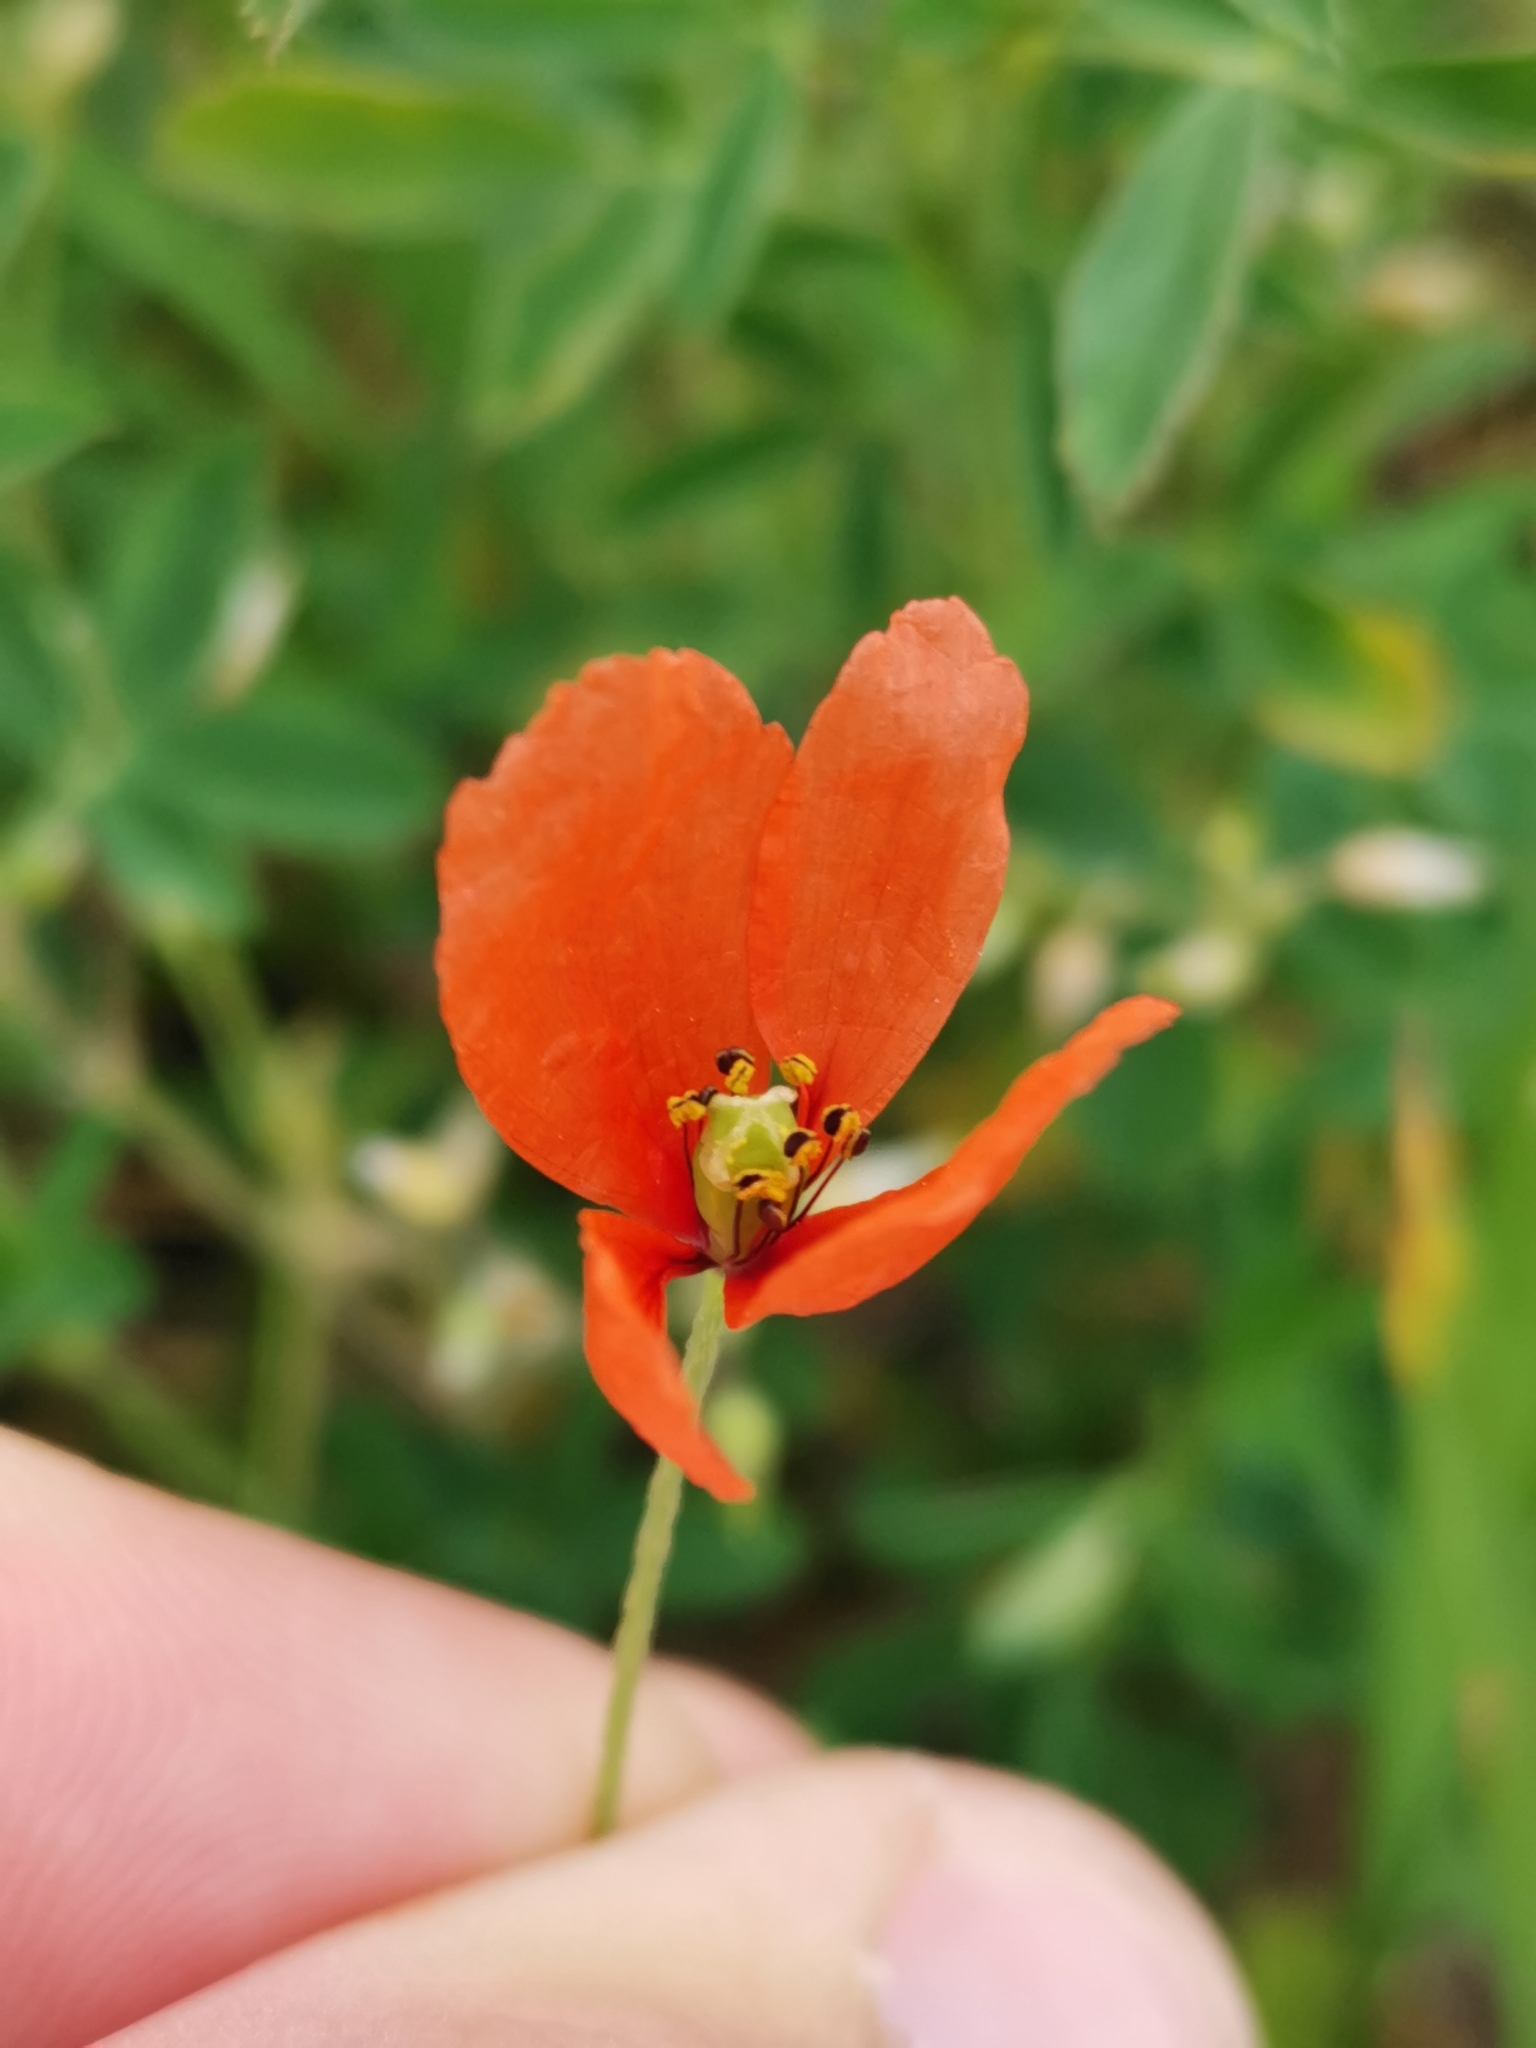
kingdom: Plantae
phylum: Tracheophyta
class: Magnoliopsida
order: Ranunculales
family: Papaveraceae
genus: Papaver
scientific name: Papaver dubium
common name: Long-headed poppy
